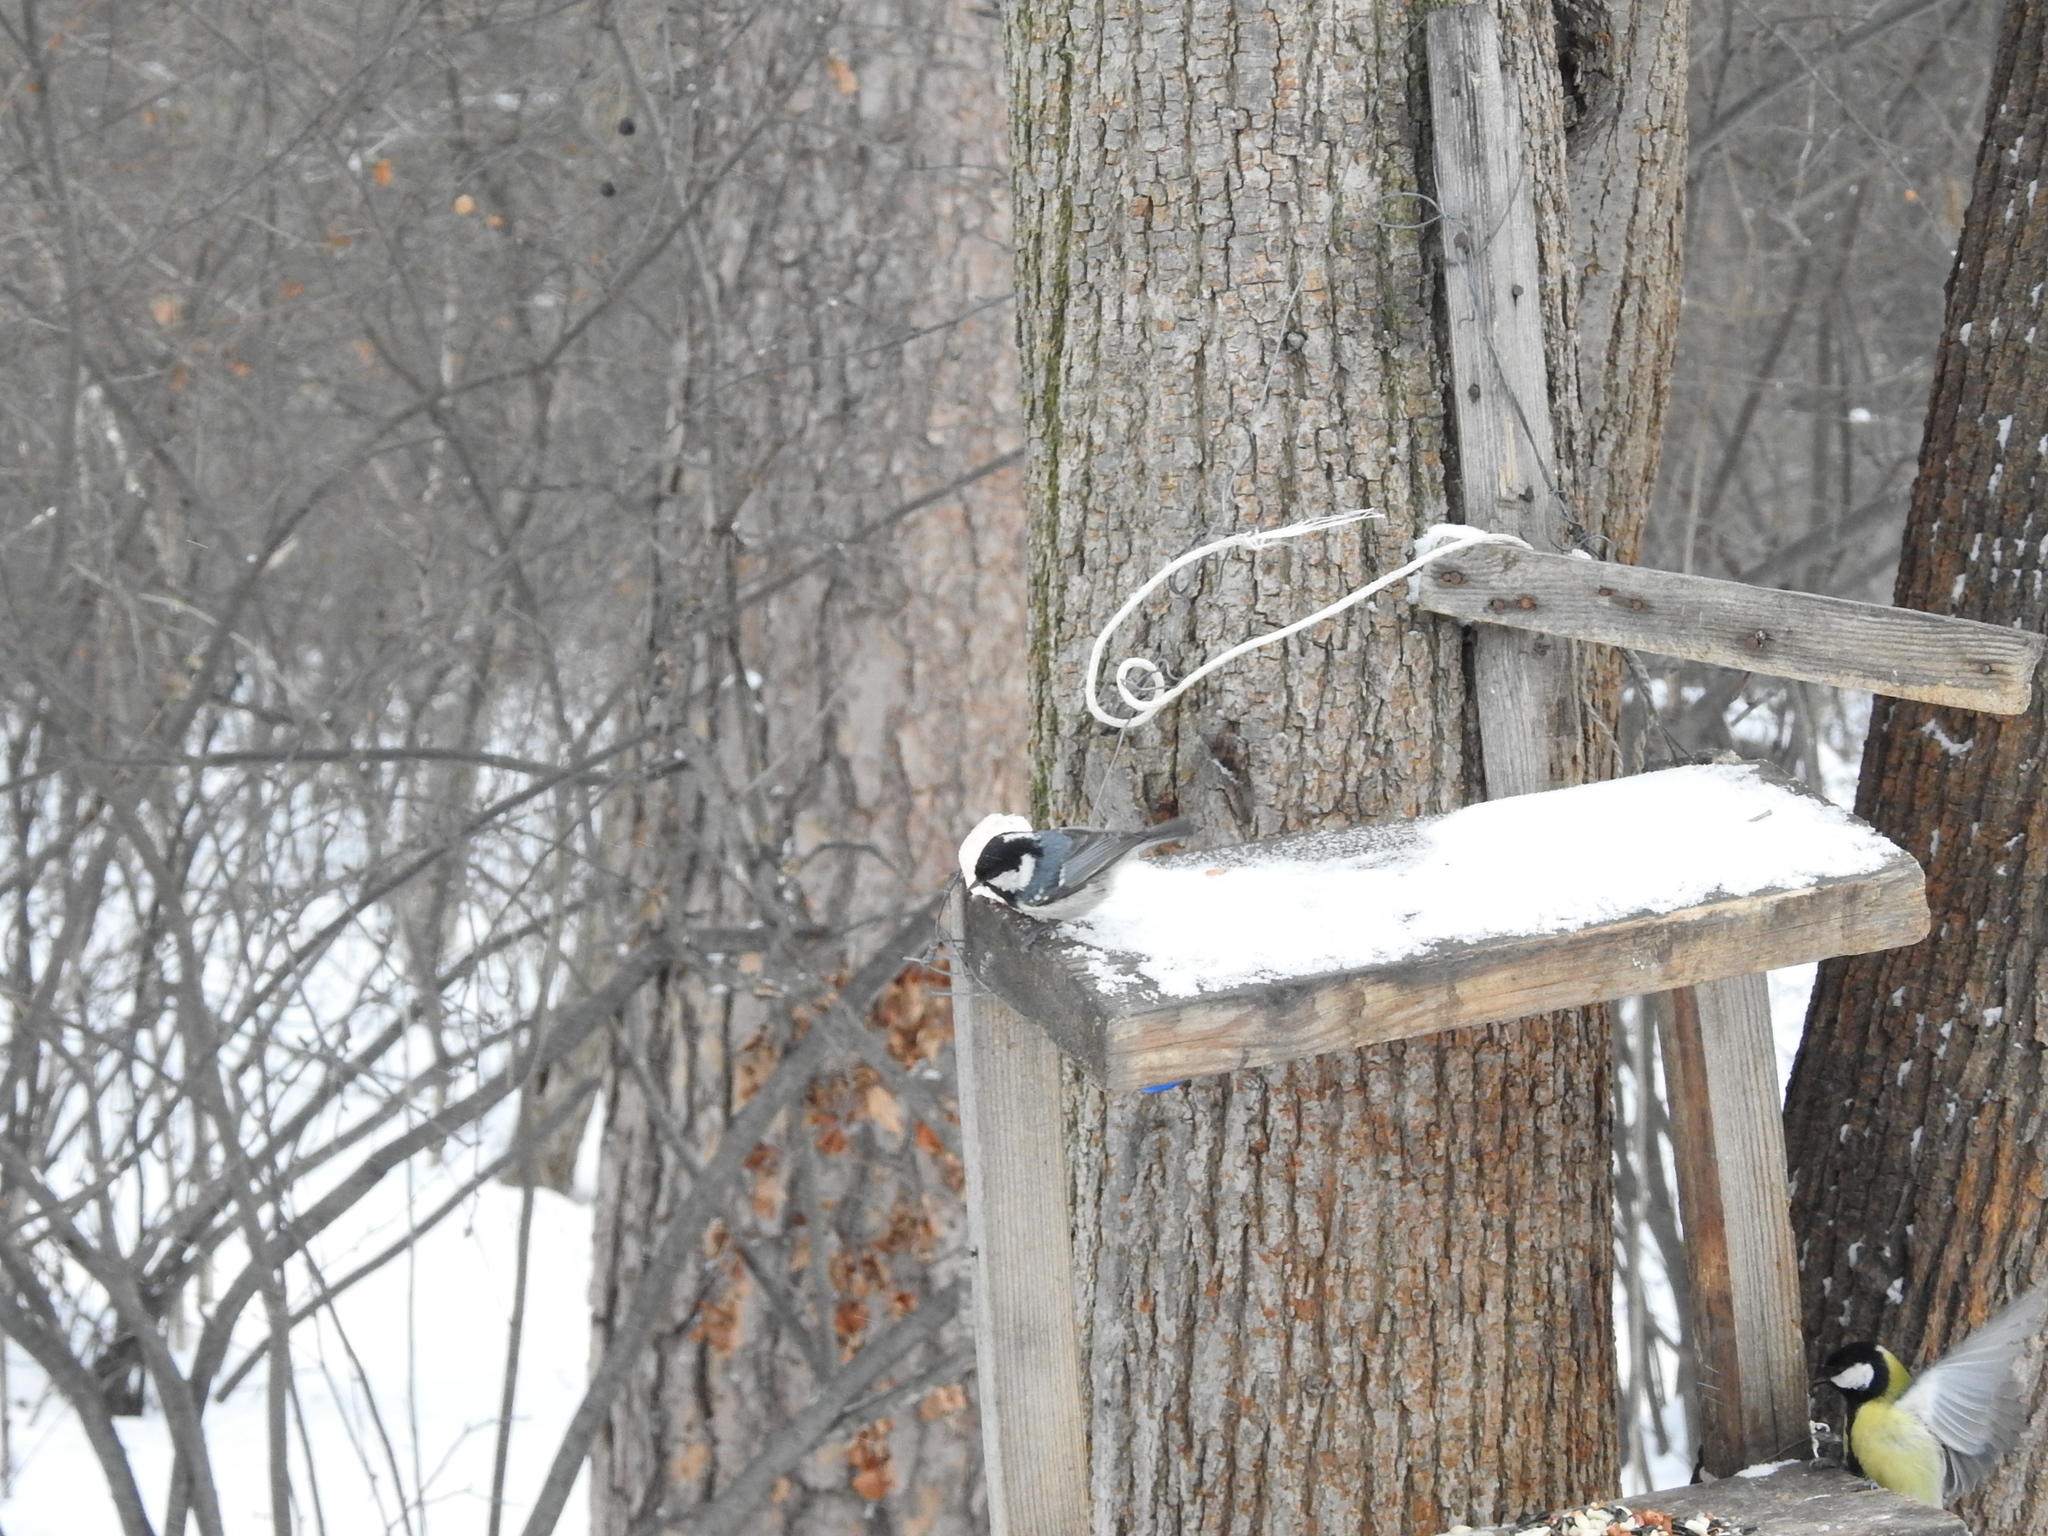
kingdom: Animalia
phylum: Chordata
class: Aves
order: Passeriformes
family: Paridae
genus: Periparus
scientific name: Periparus ater
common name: Coal tit
